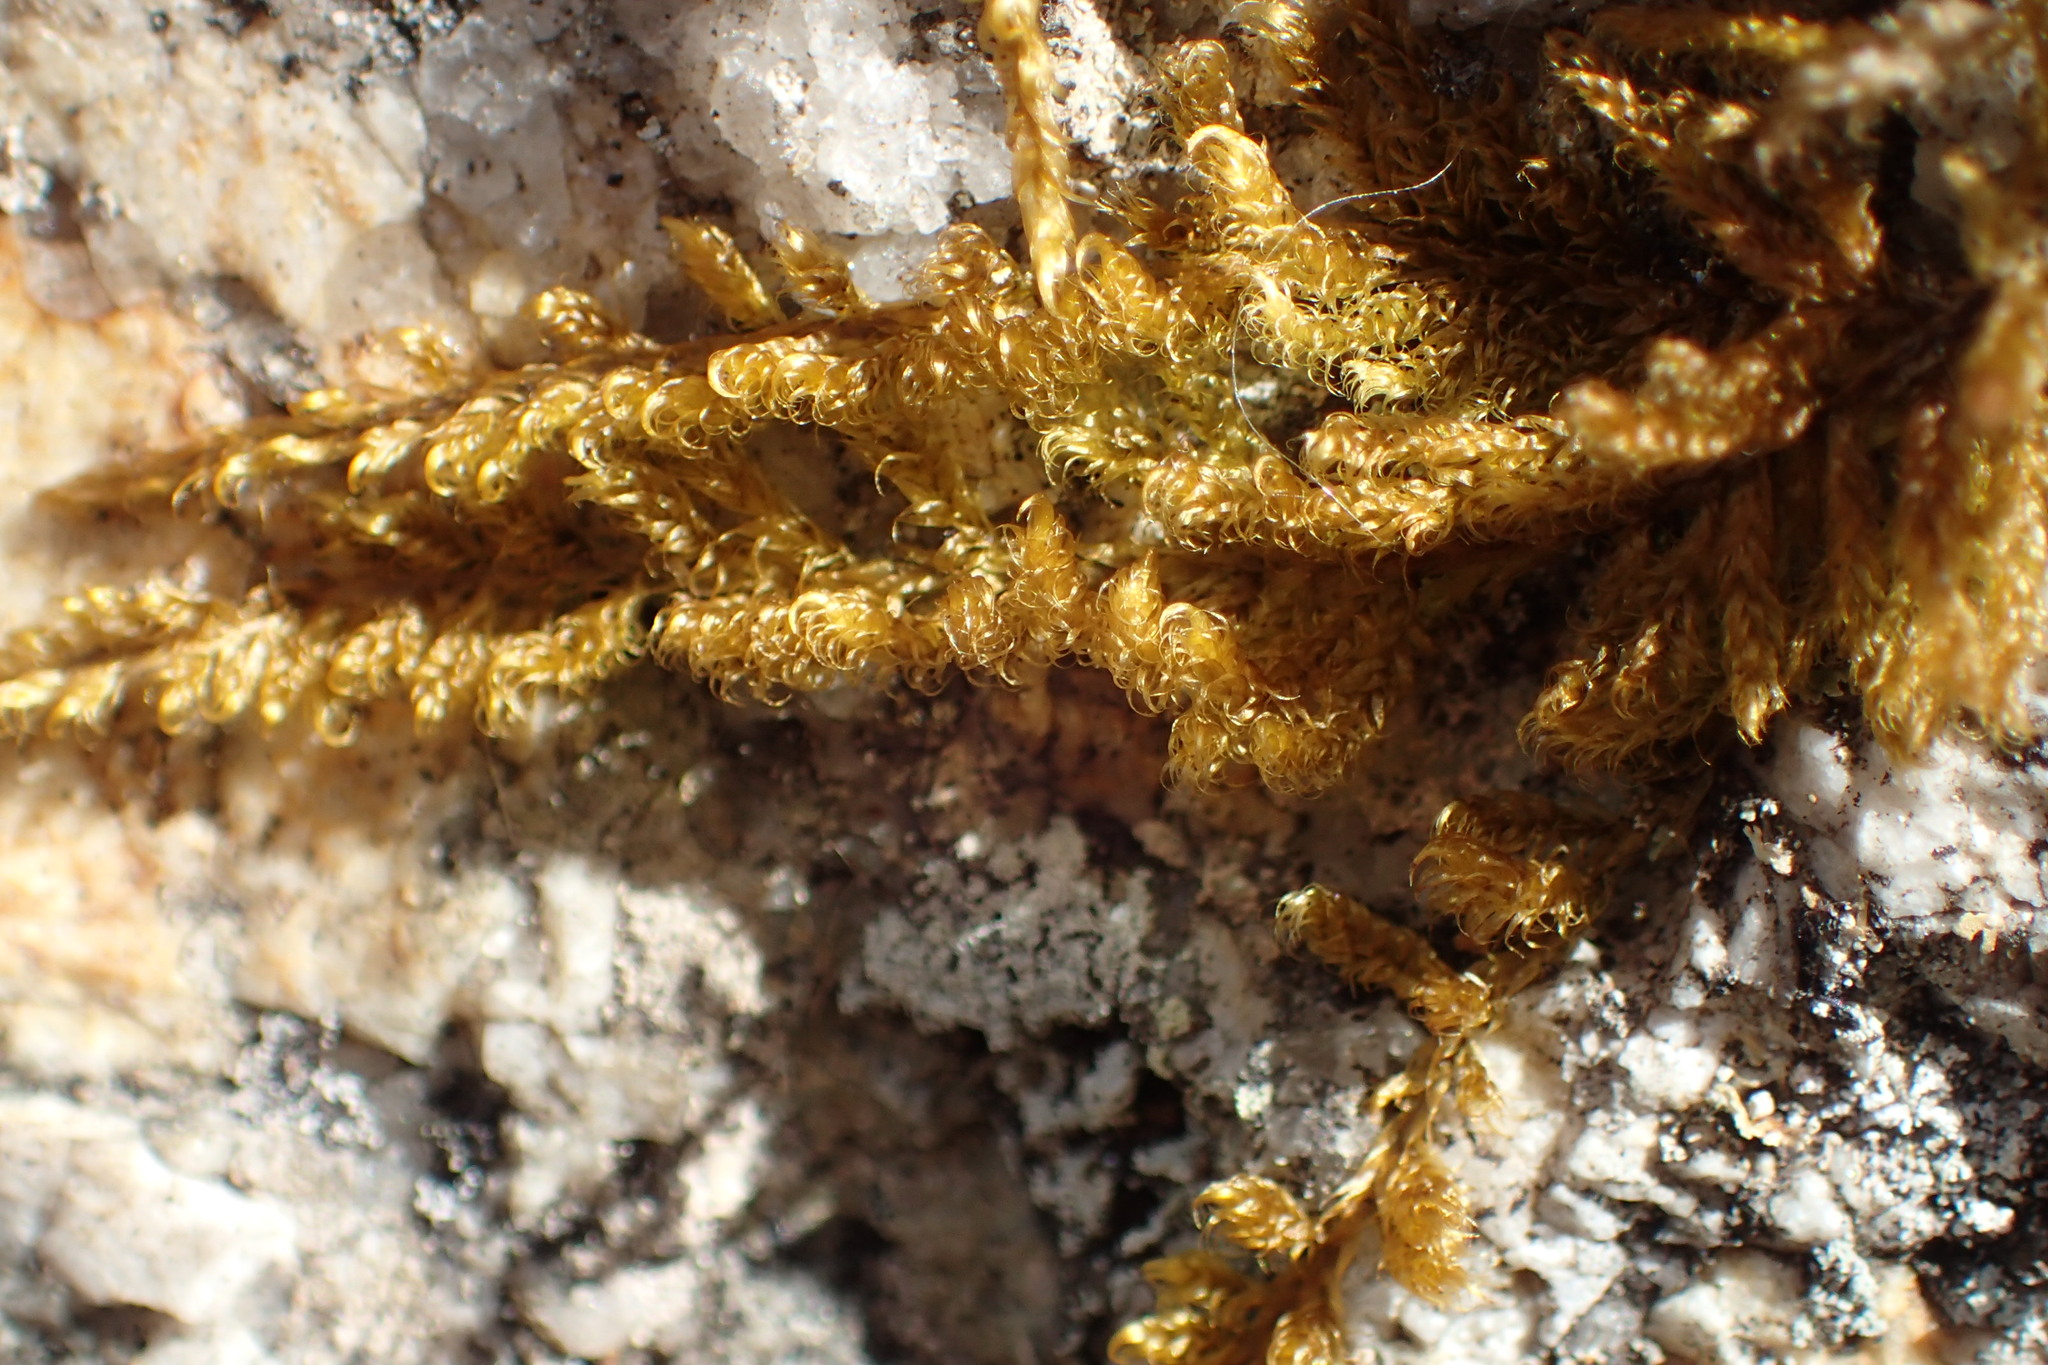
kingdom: Plantae
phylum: Bryophyta
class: Bryopsida
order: Hypnales
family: Callicladiaceae
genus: Callicladium
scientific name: Callicladium imponens
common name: Brocade moss
